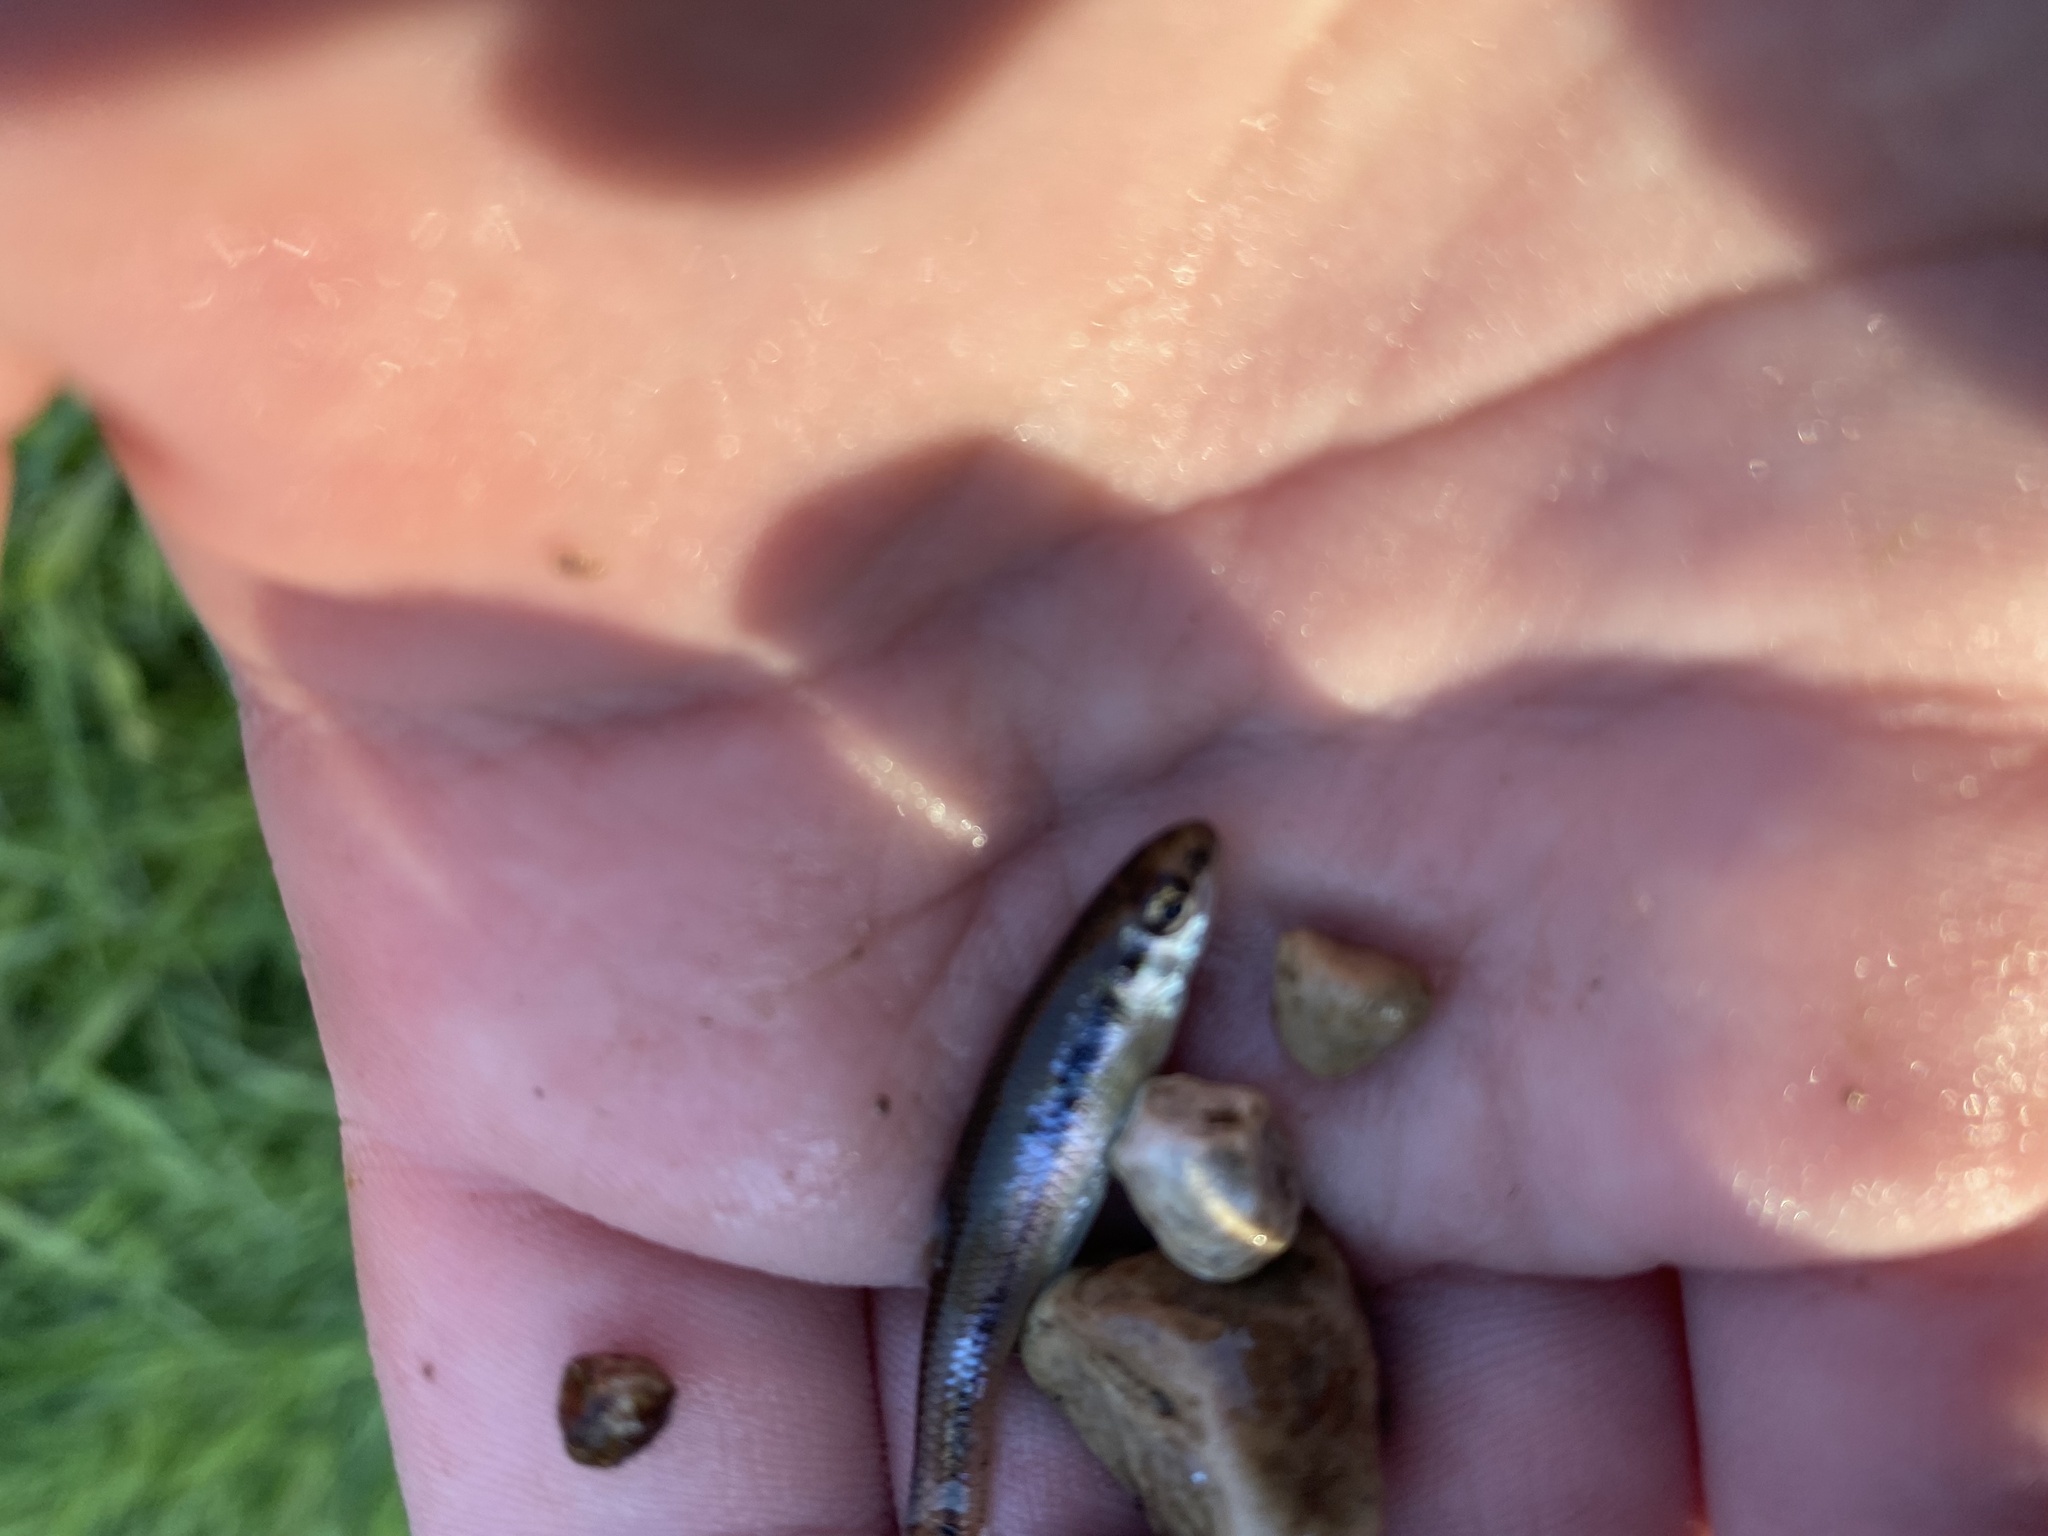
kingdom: Animalia
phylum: Chordata
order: Cypriniformes
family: Cyprinidae
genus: Pimephales
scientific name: Pimephales notatus
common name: Bluntnose minnow
